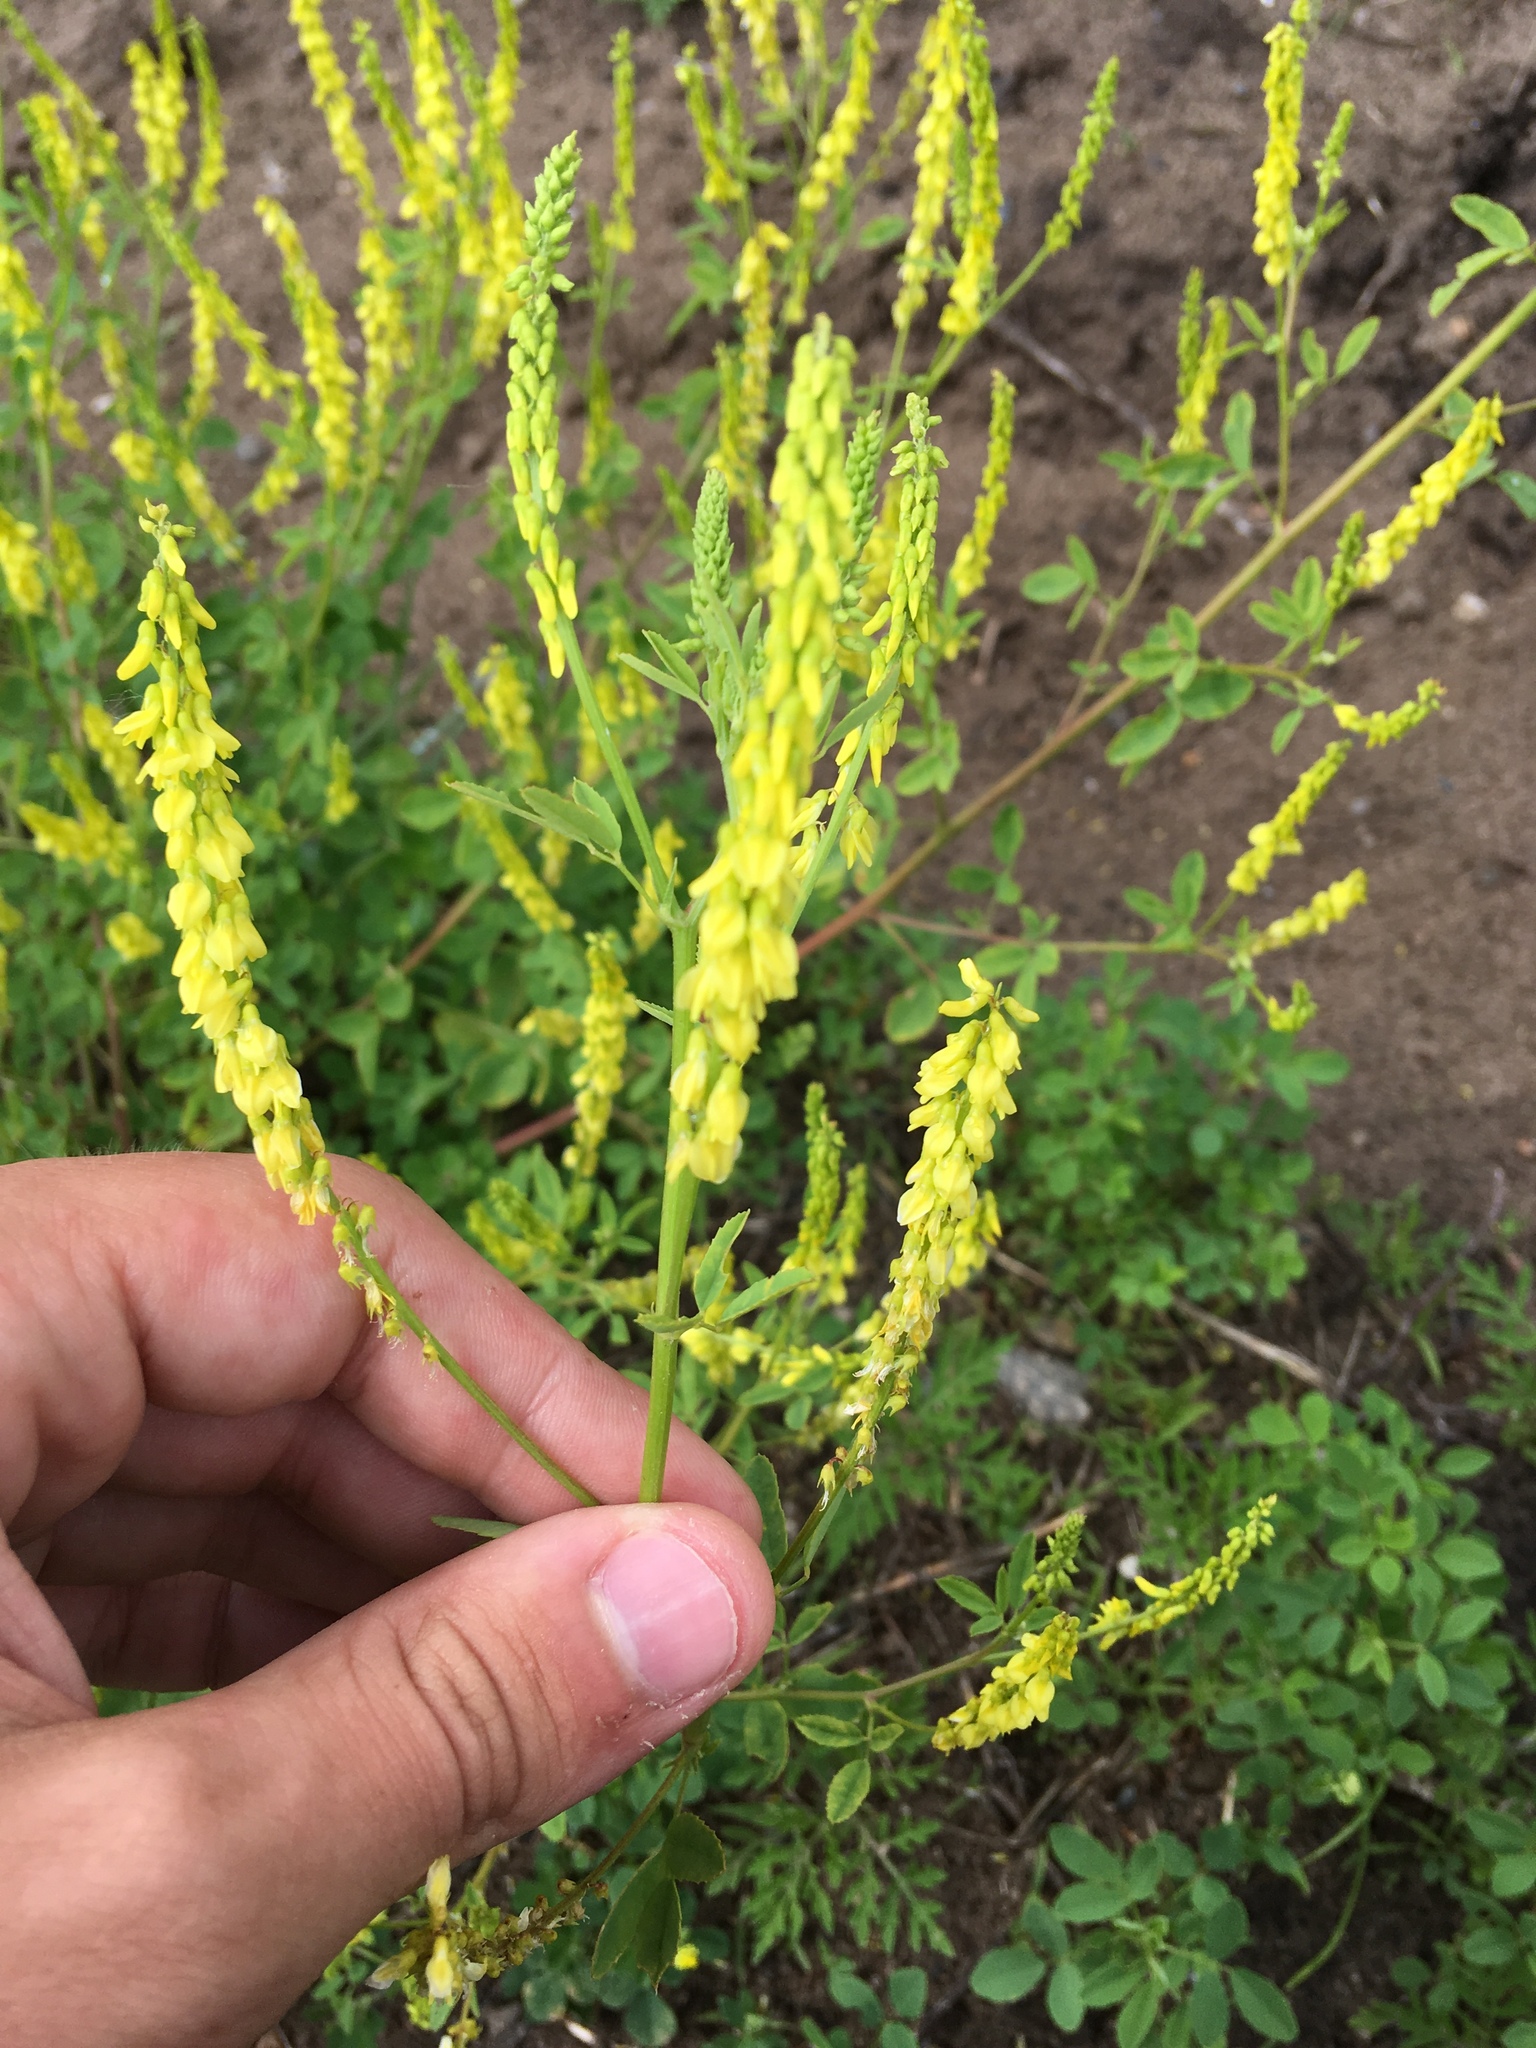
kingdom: Plantae
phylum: Tracheophyta
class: Magnoliopsida
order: Fabales
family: Fabaceae
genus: Melilotus
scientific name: Melilotus officinalis
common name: Sweetclover
